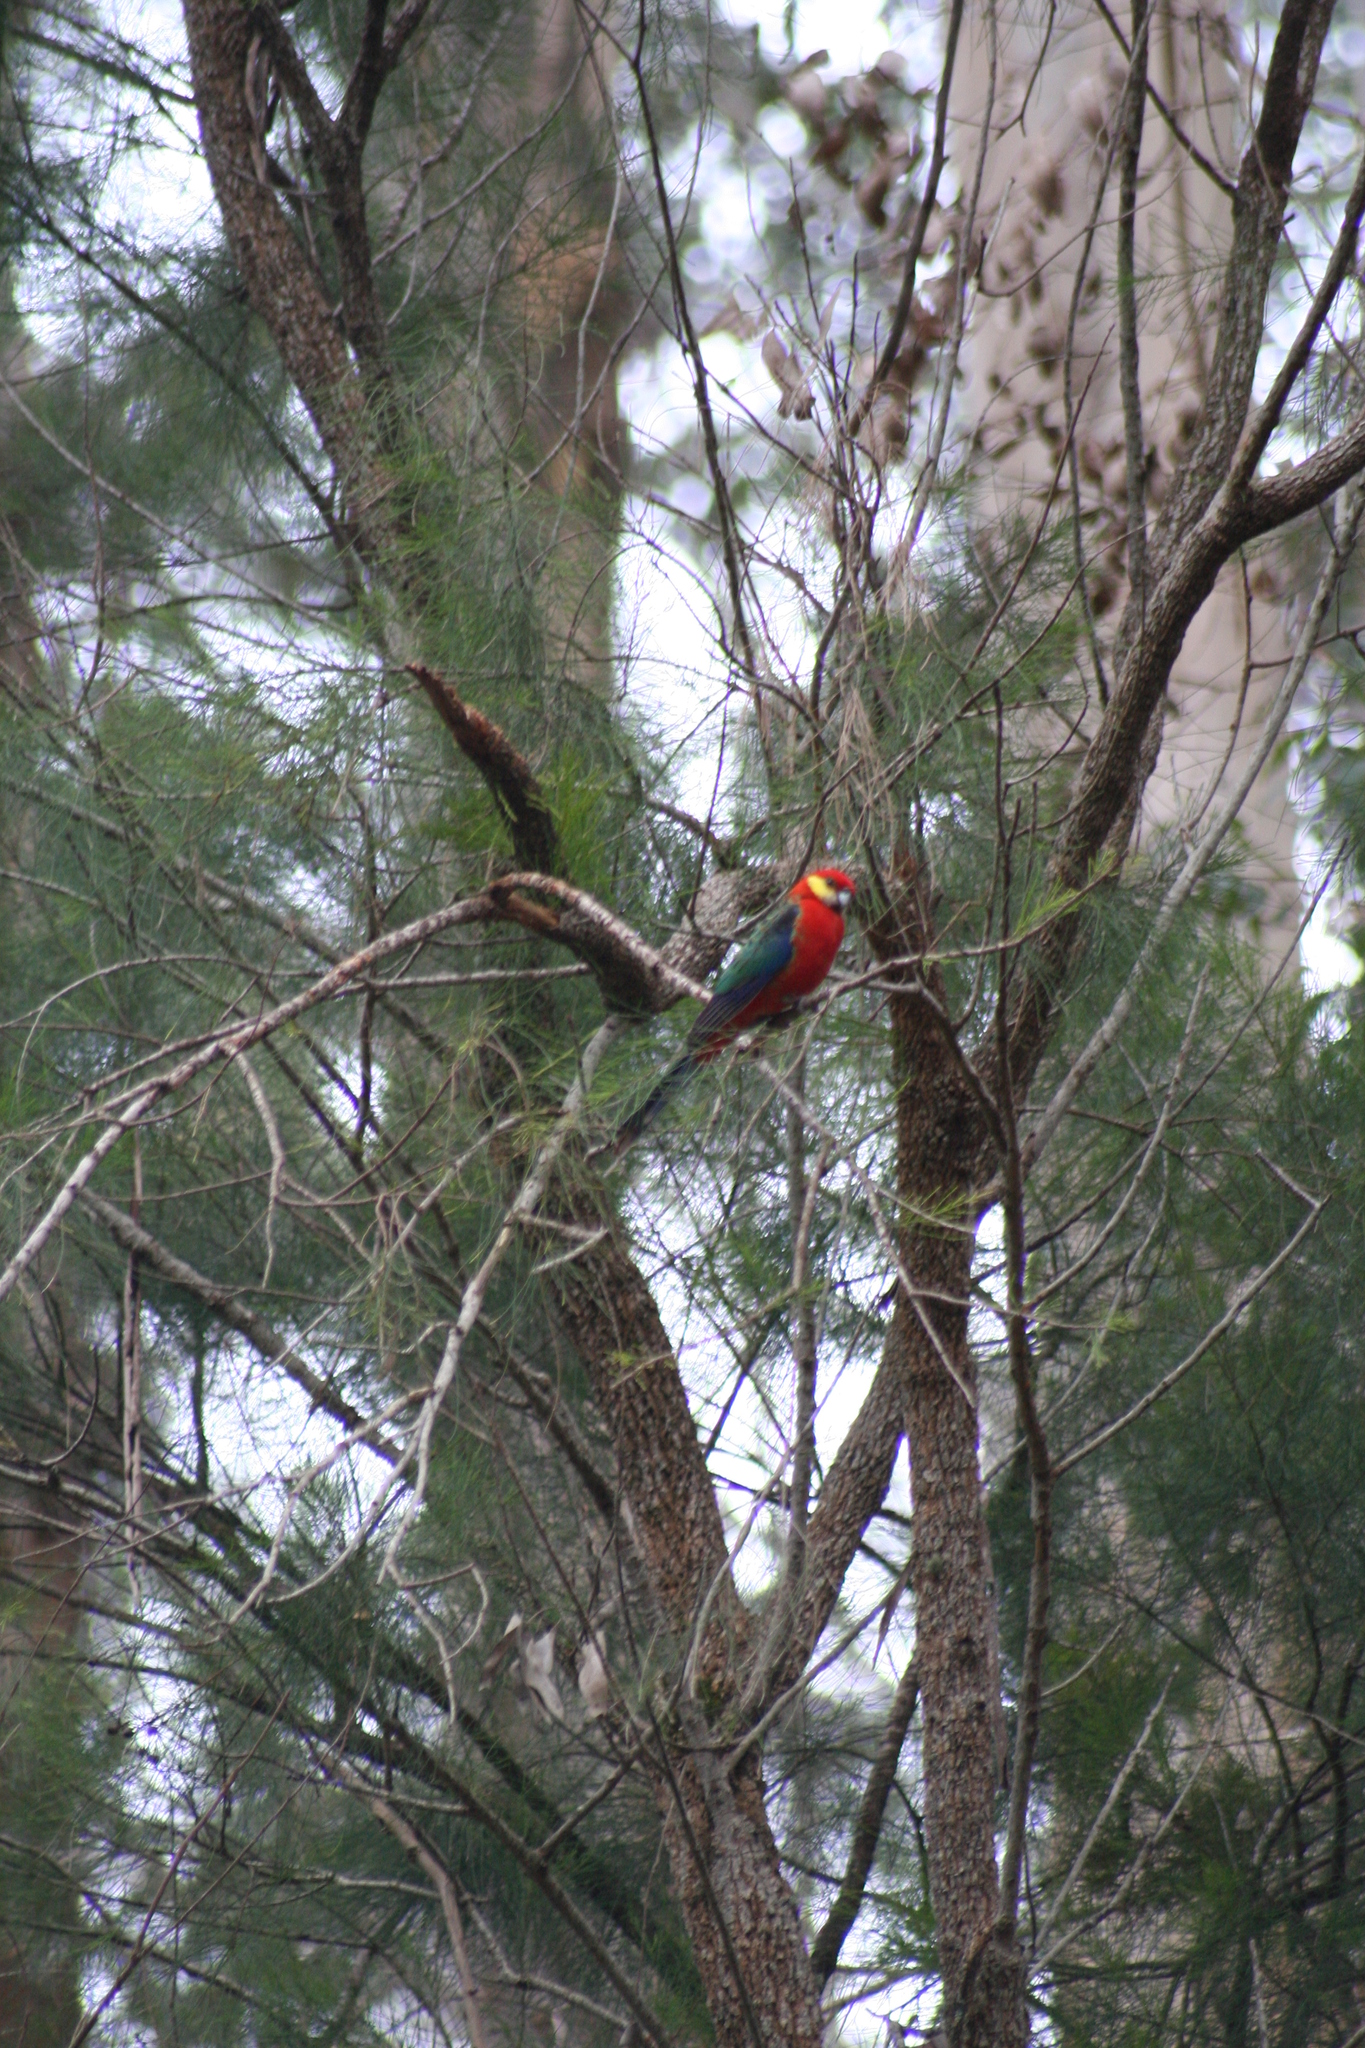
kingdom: Animalia
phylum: Chordata
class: Aves
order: Psittaciformes
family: Psittacidae
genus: Platycercus
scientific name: Platycercus icterotis
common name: Western rosella
